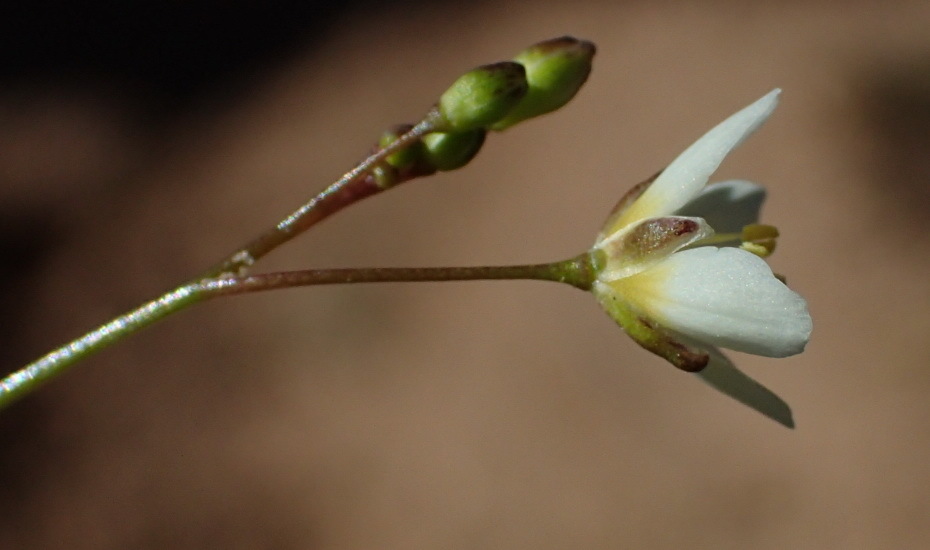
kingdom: Plantae
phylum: Tracheophyta
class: Magnoliopsida
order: Brassicales
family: Brassicaceae
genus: Heliophila
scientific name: Heliophila pendula
